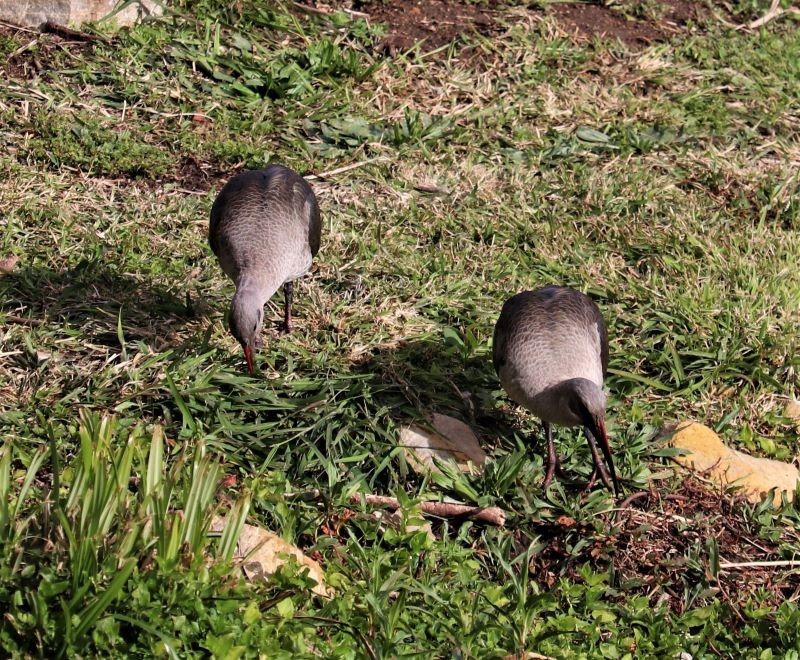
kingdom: Animalia
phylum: Chordata
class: Aves
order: Pelecaniformes
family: Threskiornithidae
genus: Bostrychia
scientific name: Bostrychia hagedash
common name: Hadada ibis
